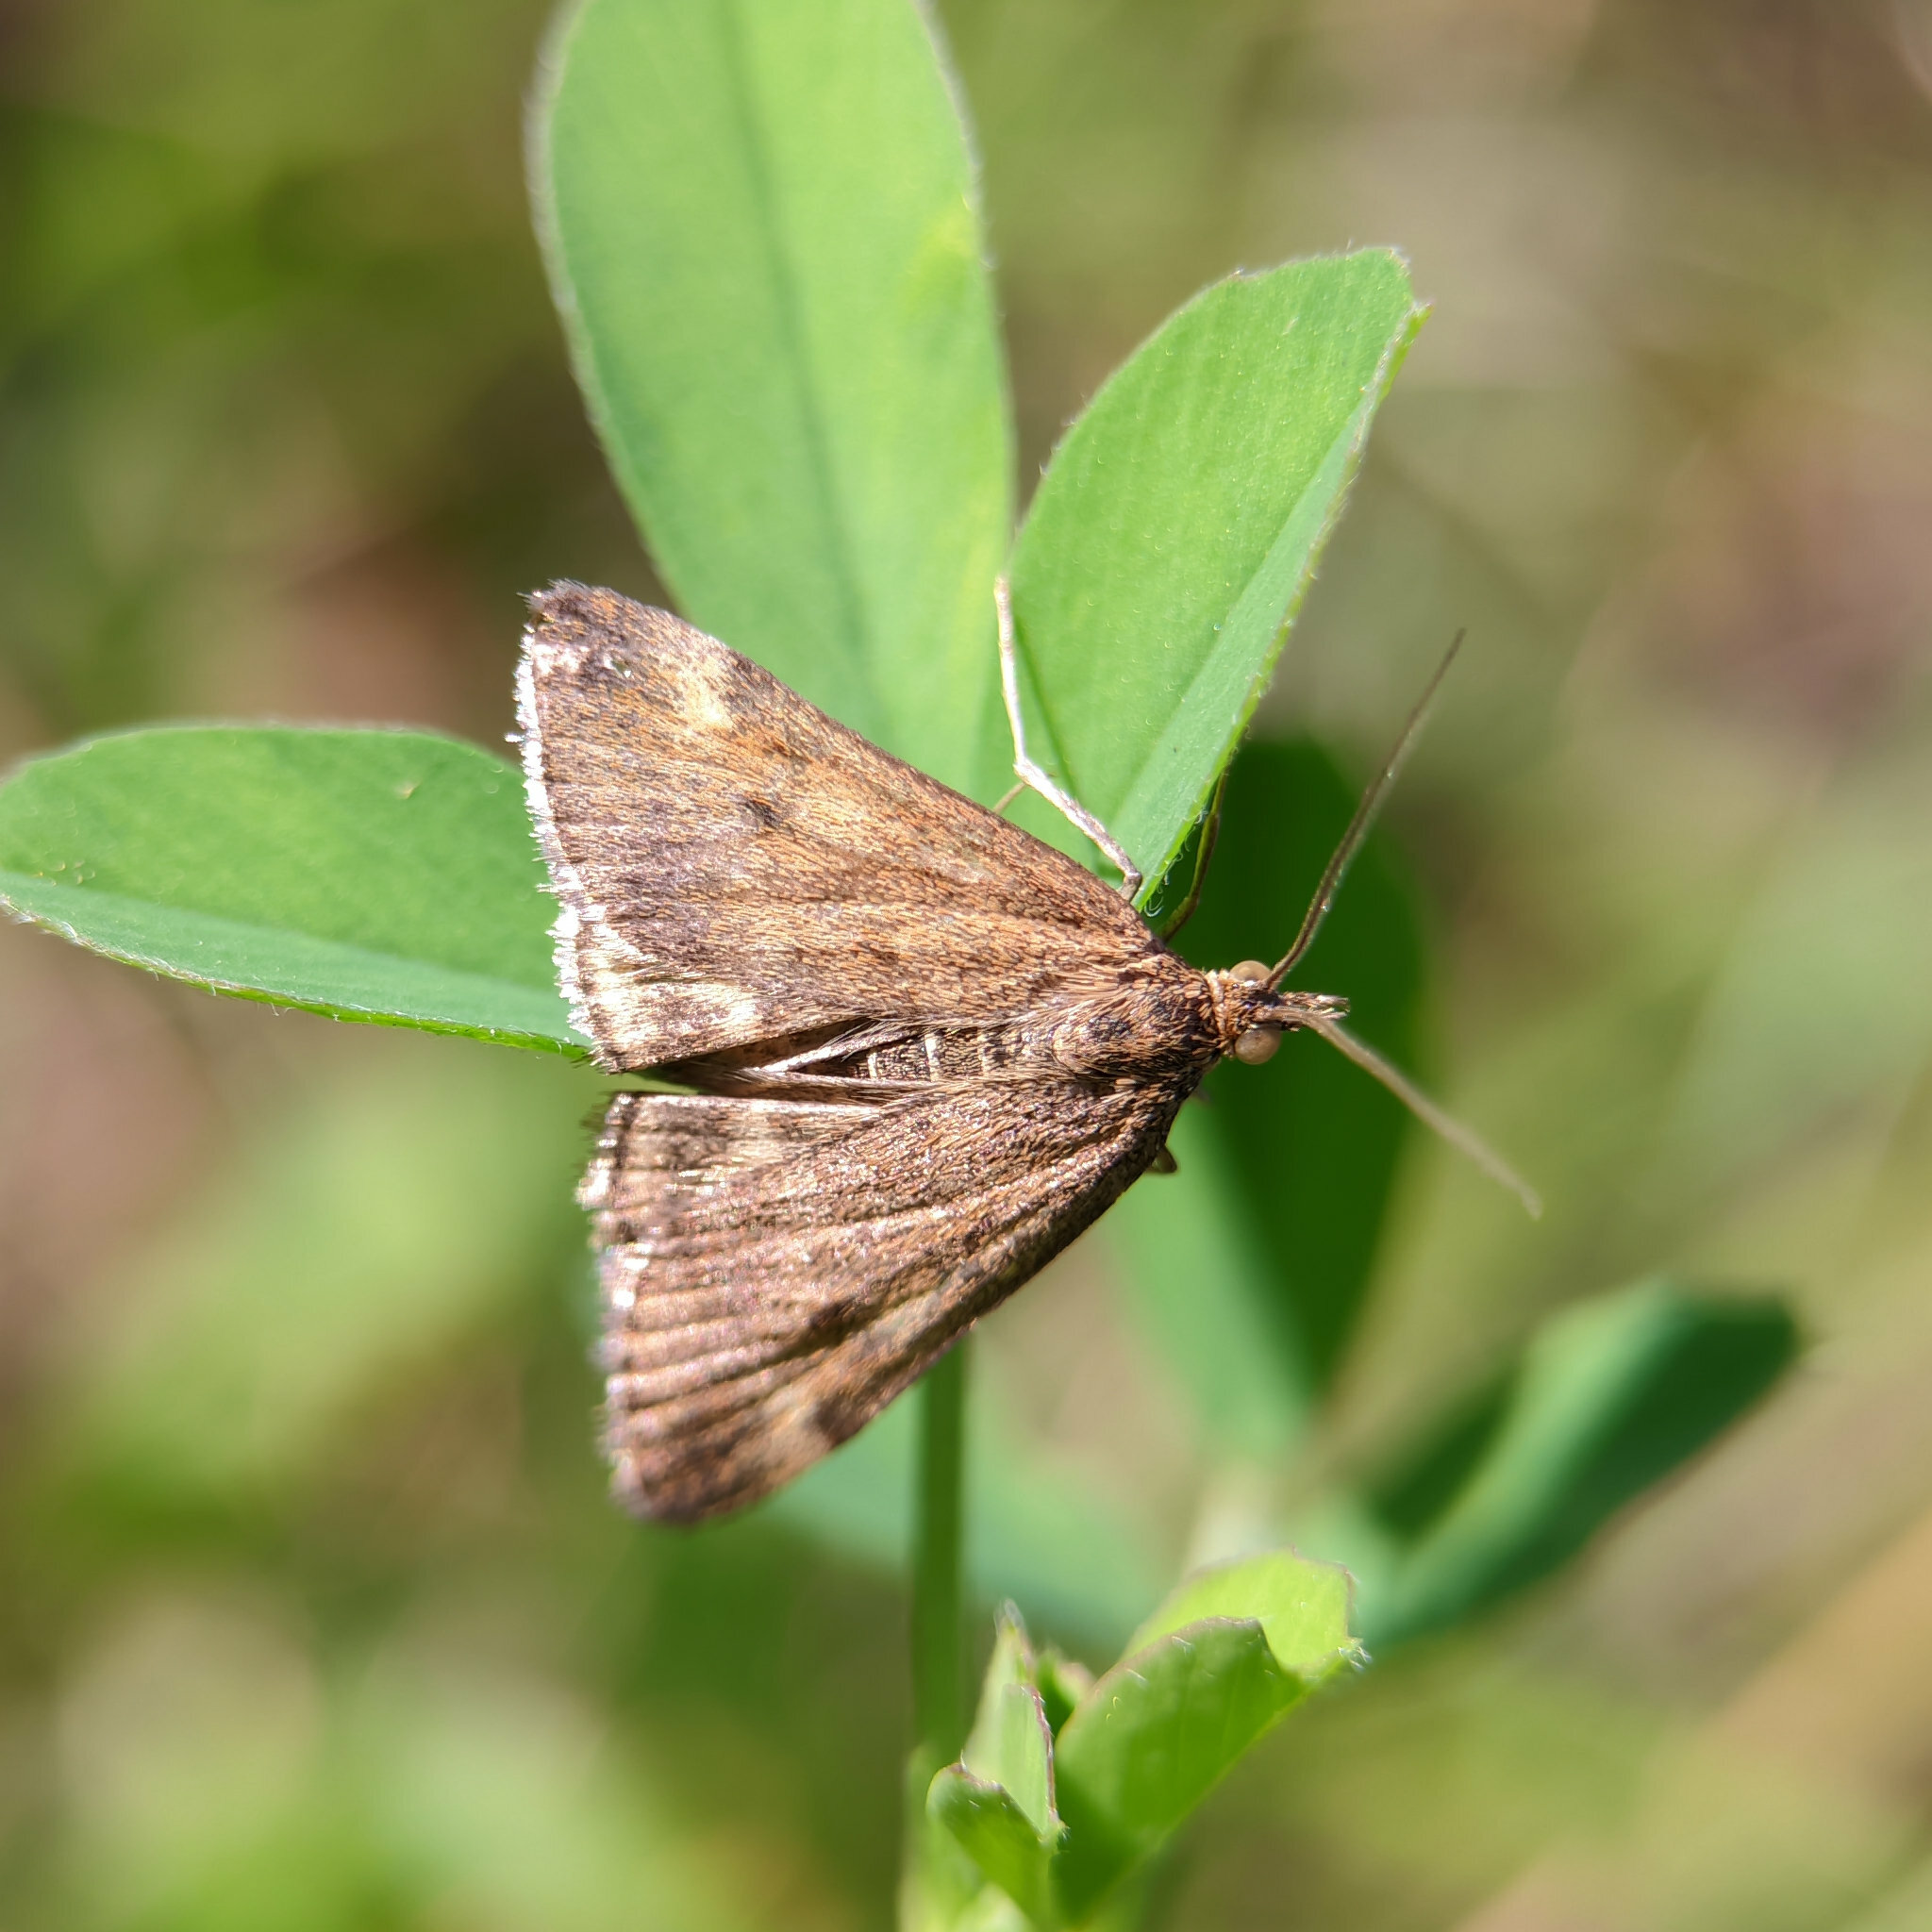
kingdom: Animalia
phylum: Arthropoda
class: Insecta
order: Lepidoptera
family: Crambidae
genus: Pyrausta
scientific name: Pyrausta despicata
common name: Straw-barred pearl
